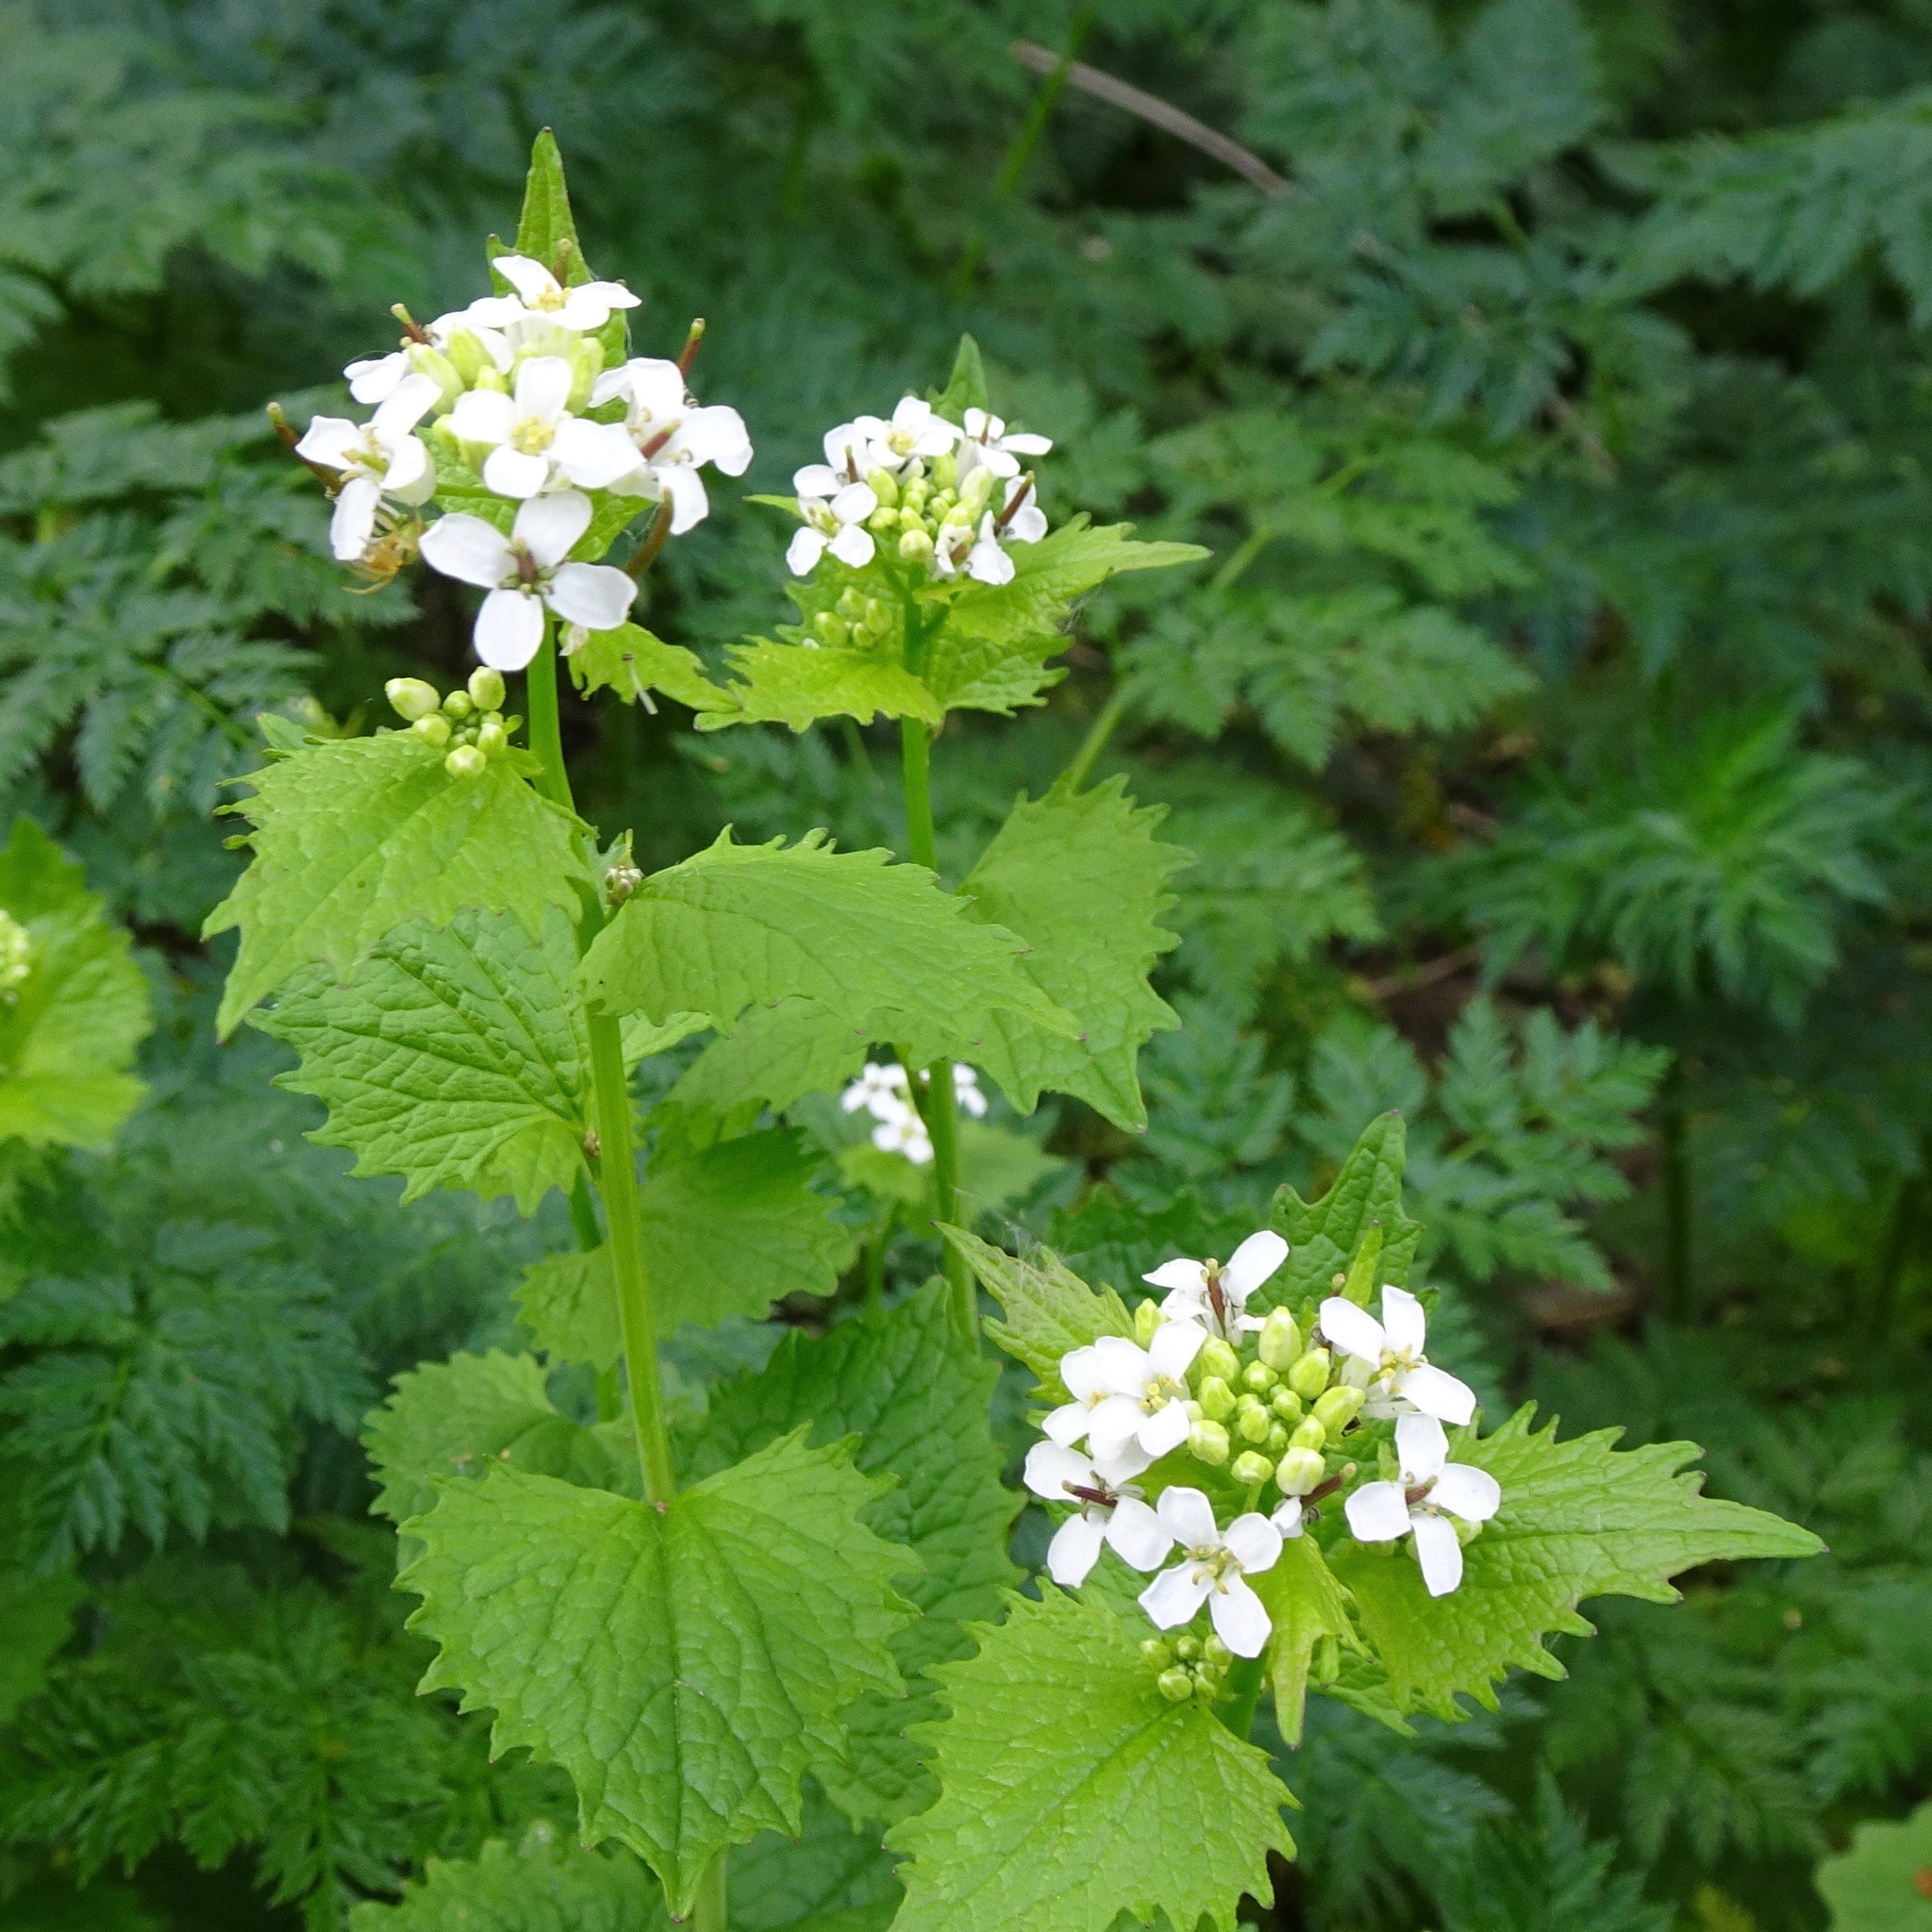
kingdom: Plantae
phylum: Tracheophyta
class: Magnoliopsida
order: Brassicales
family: Brassicaceae
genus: Alliaria
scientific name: Alliaria petiolata
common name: Garlic mustard
